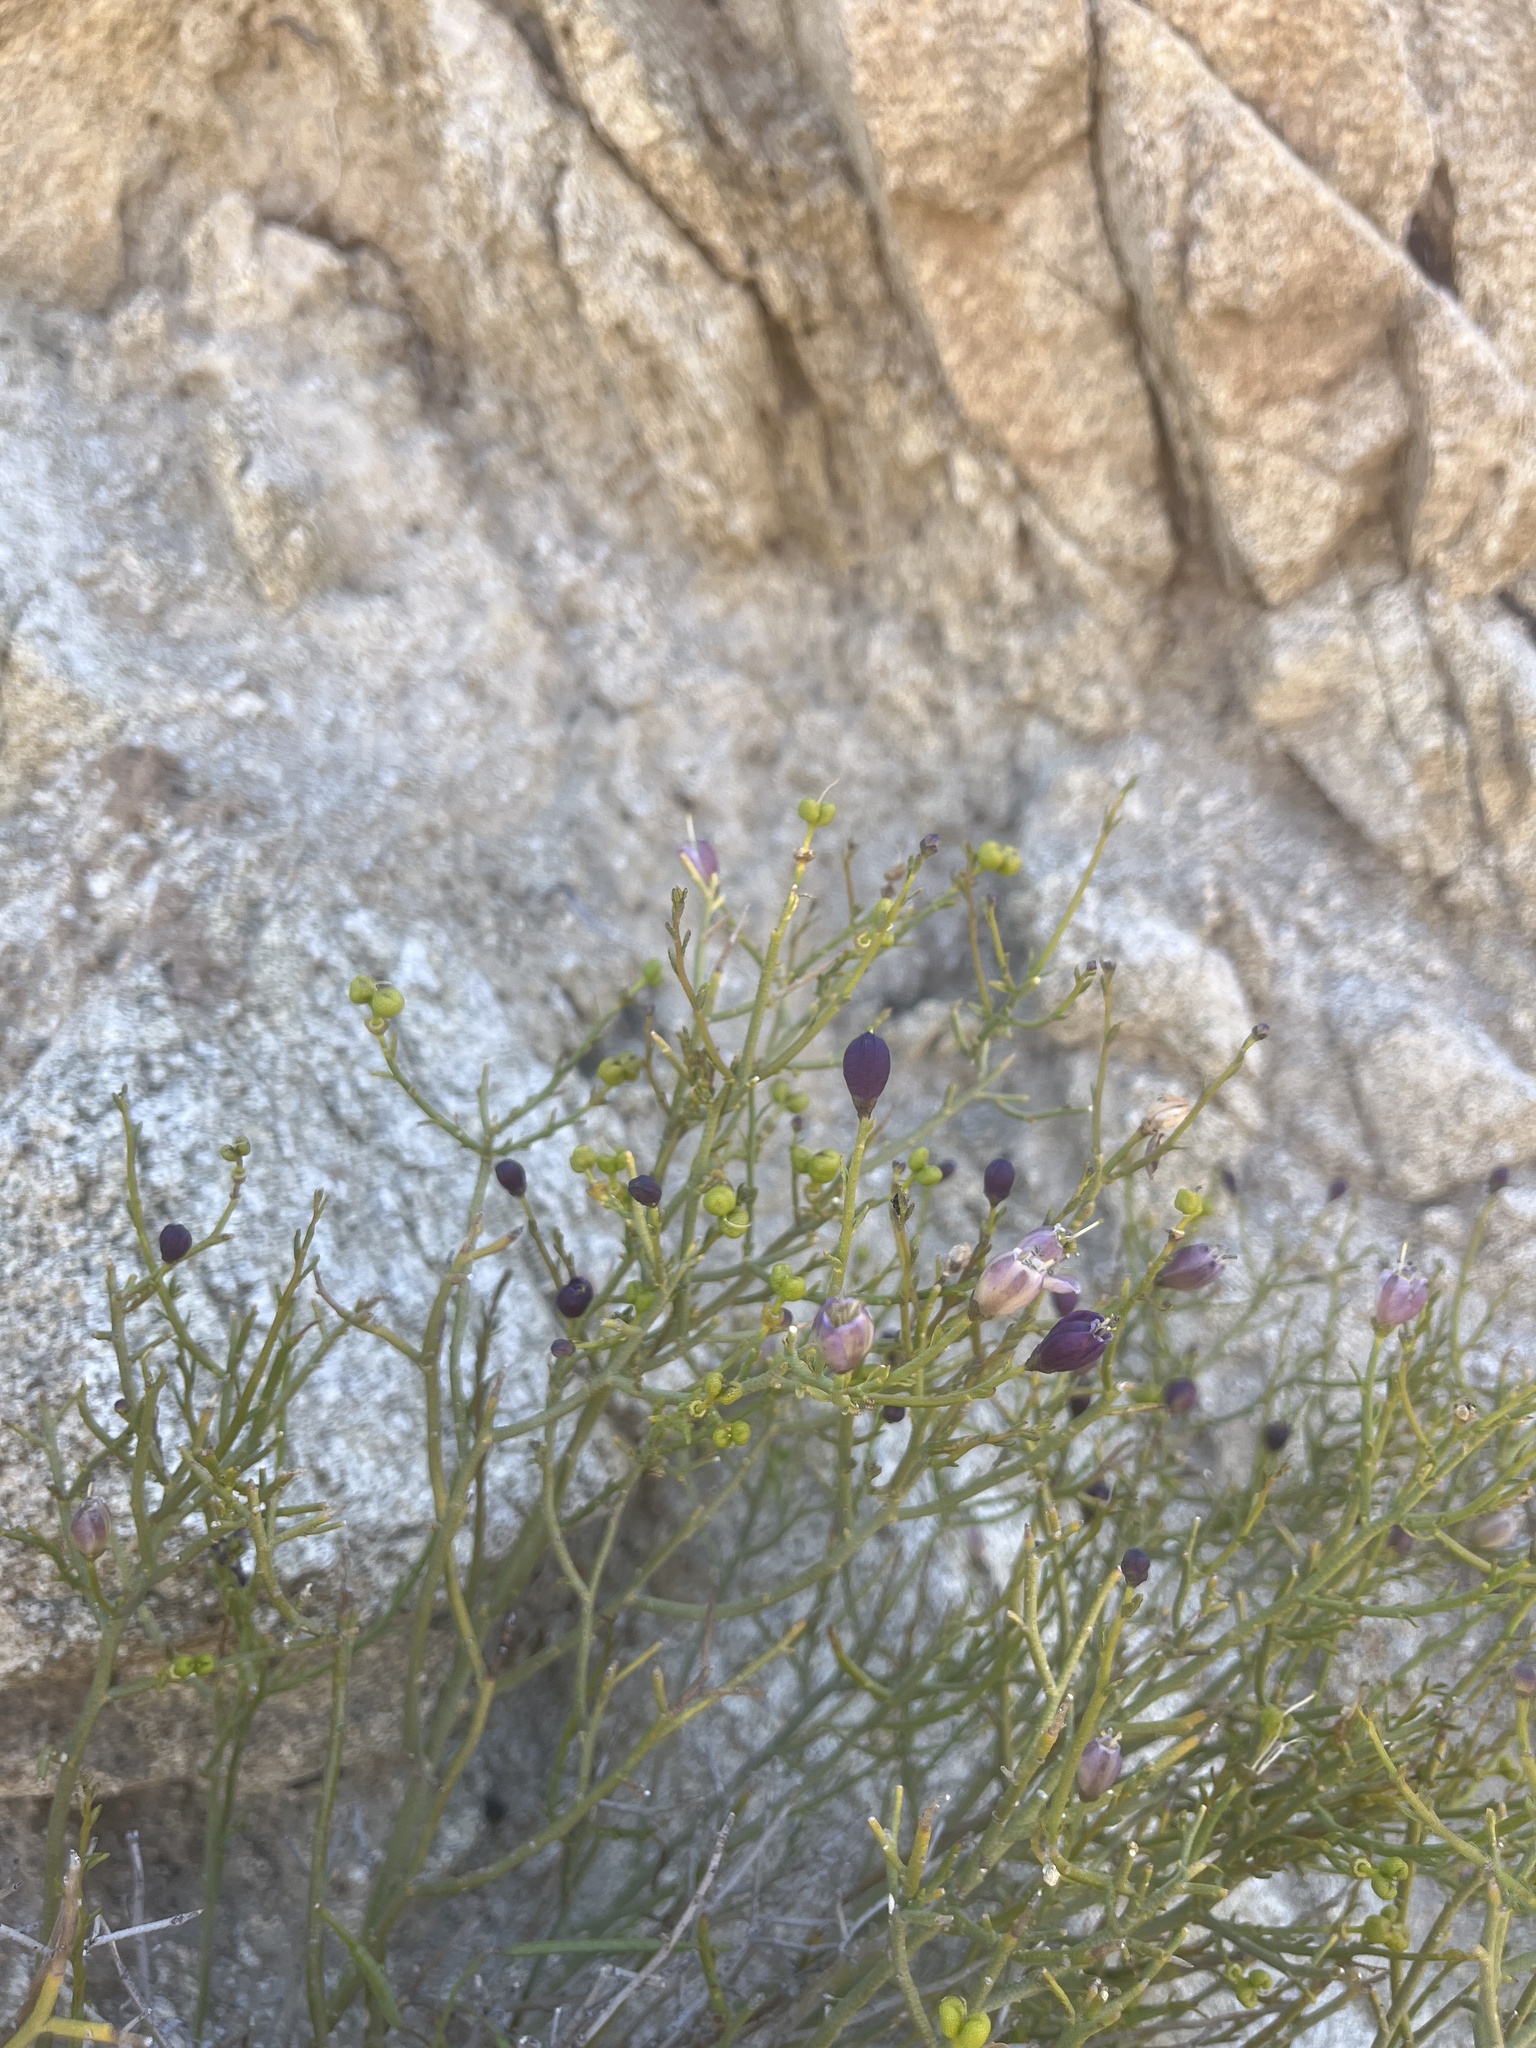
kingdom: Plantae
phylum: Tracheophyta
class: Magnoliopsida
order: Sapindales
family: Rutaceae
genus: Thamnosma
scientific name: Thamnosma montana
